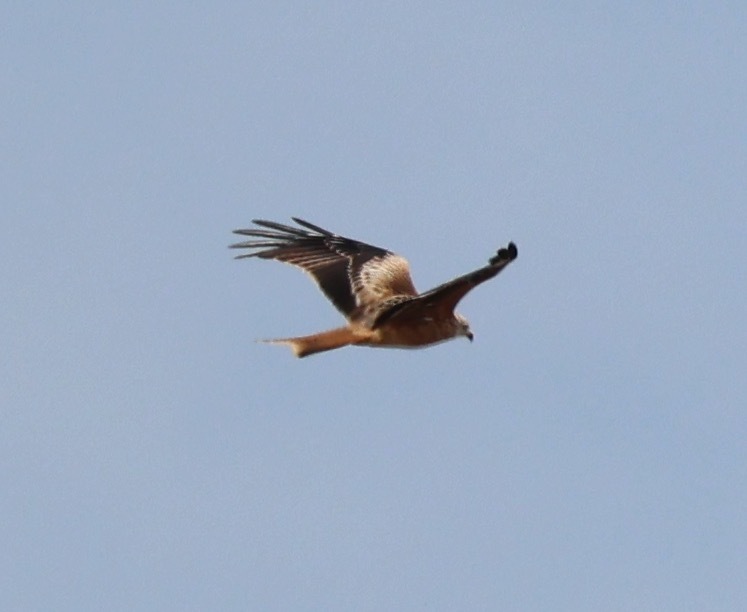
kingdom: Animalia
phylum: Chordata
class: Aves
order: Accipitriformes
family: Accipitridae
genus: Milvus
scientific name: Milvus milvus
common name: Red kite
